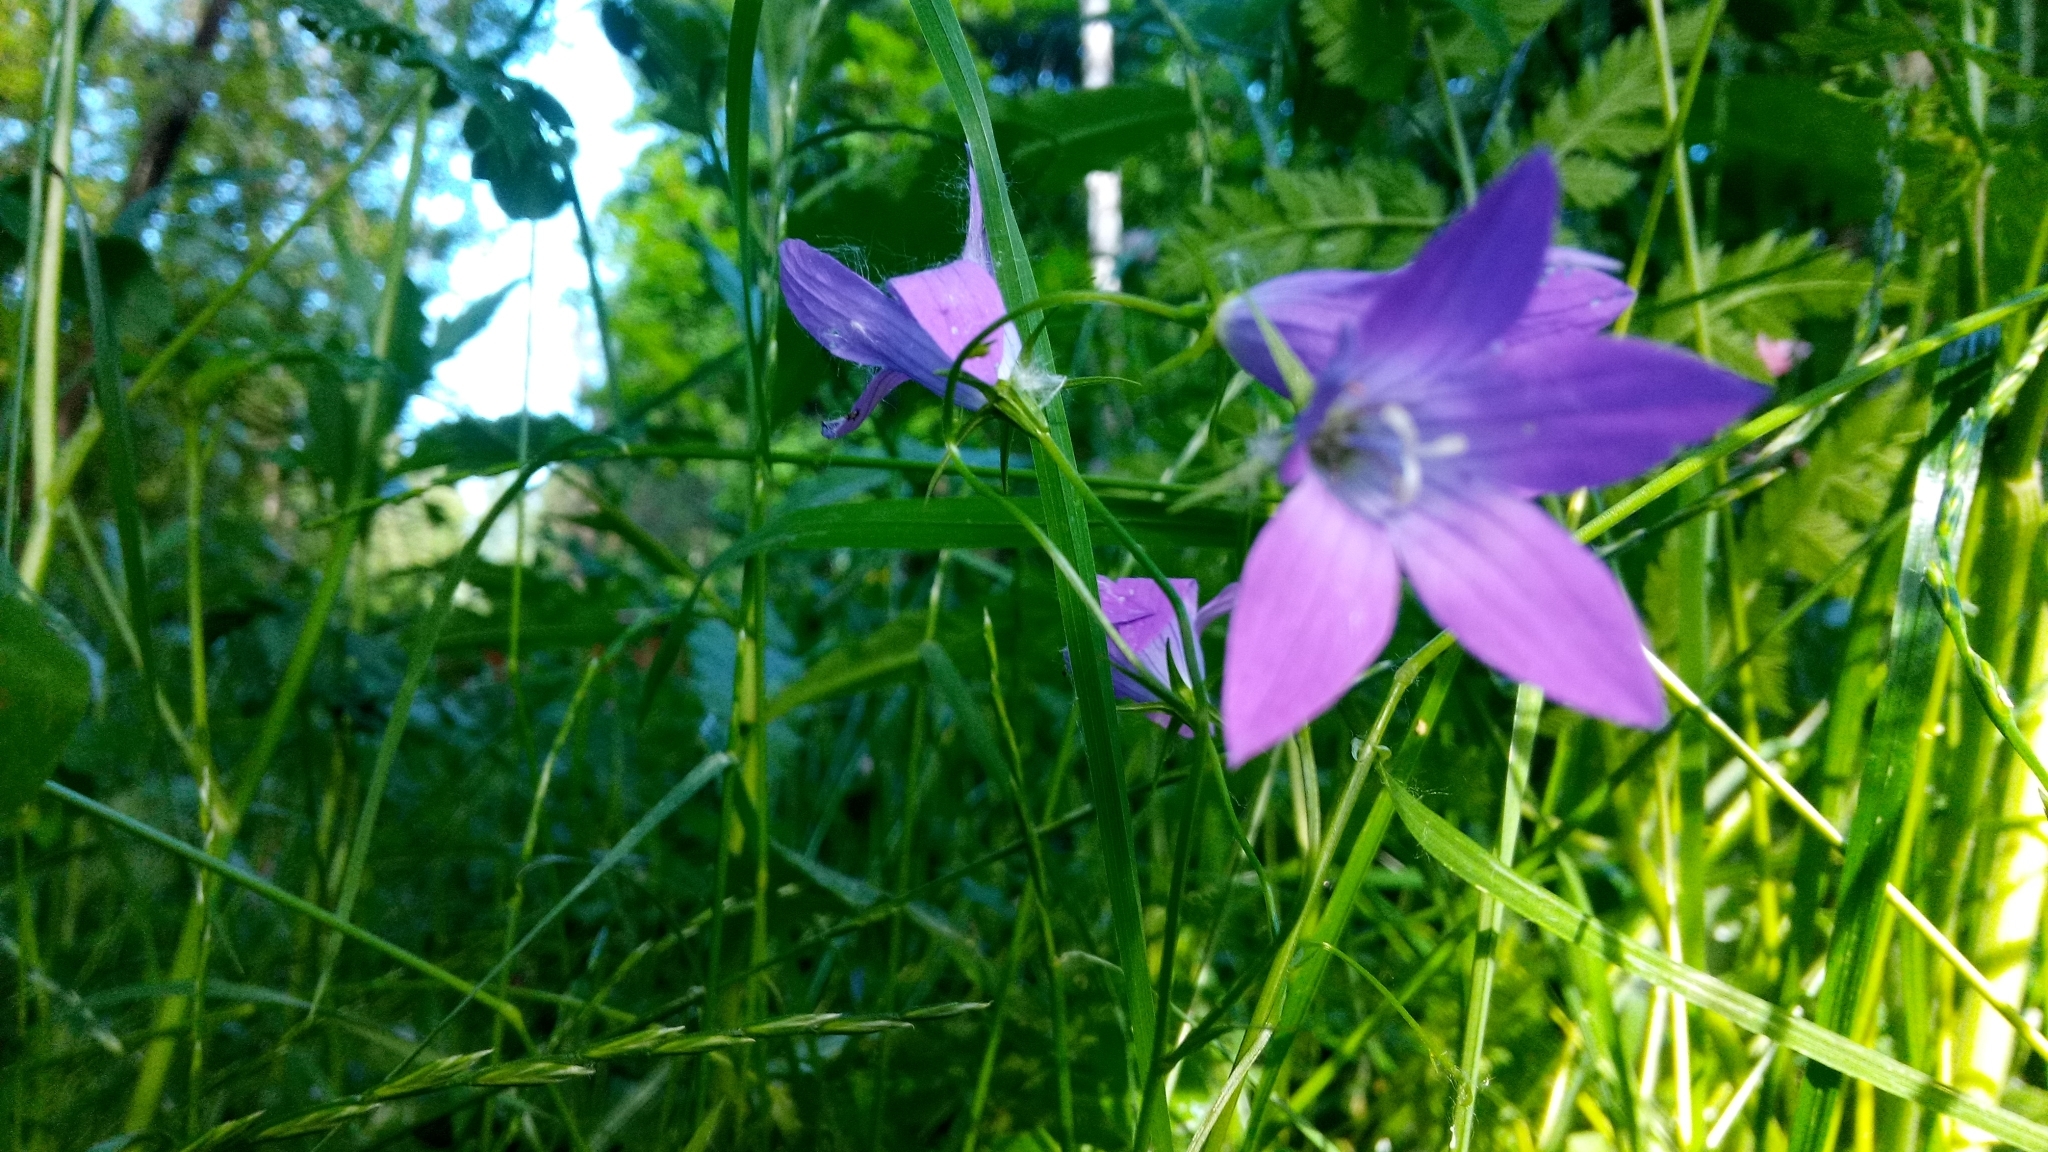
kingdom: Plantae
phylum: Tracheophyta
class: Magnoliopsida
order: Asterales
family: Campanulaceae
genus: Campanula
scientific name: Campanula patula
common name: Spreading bellflower
